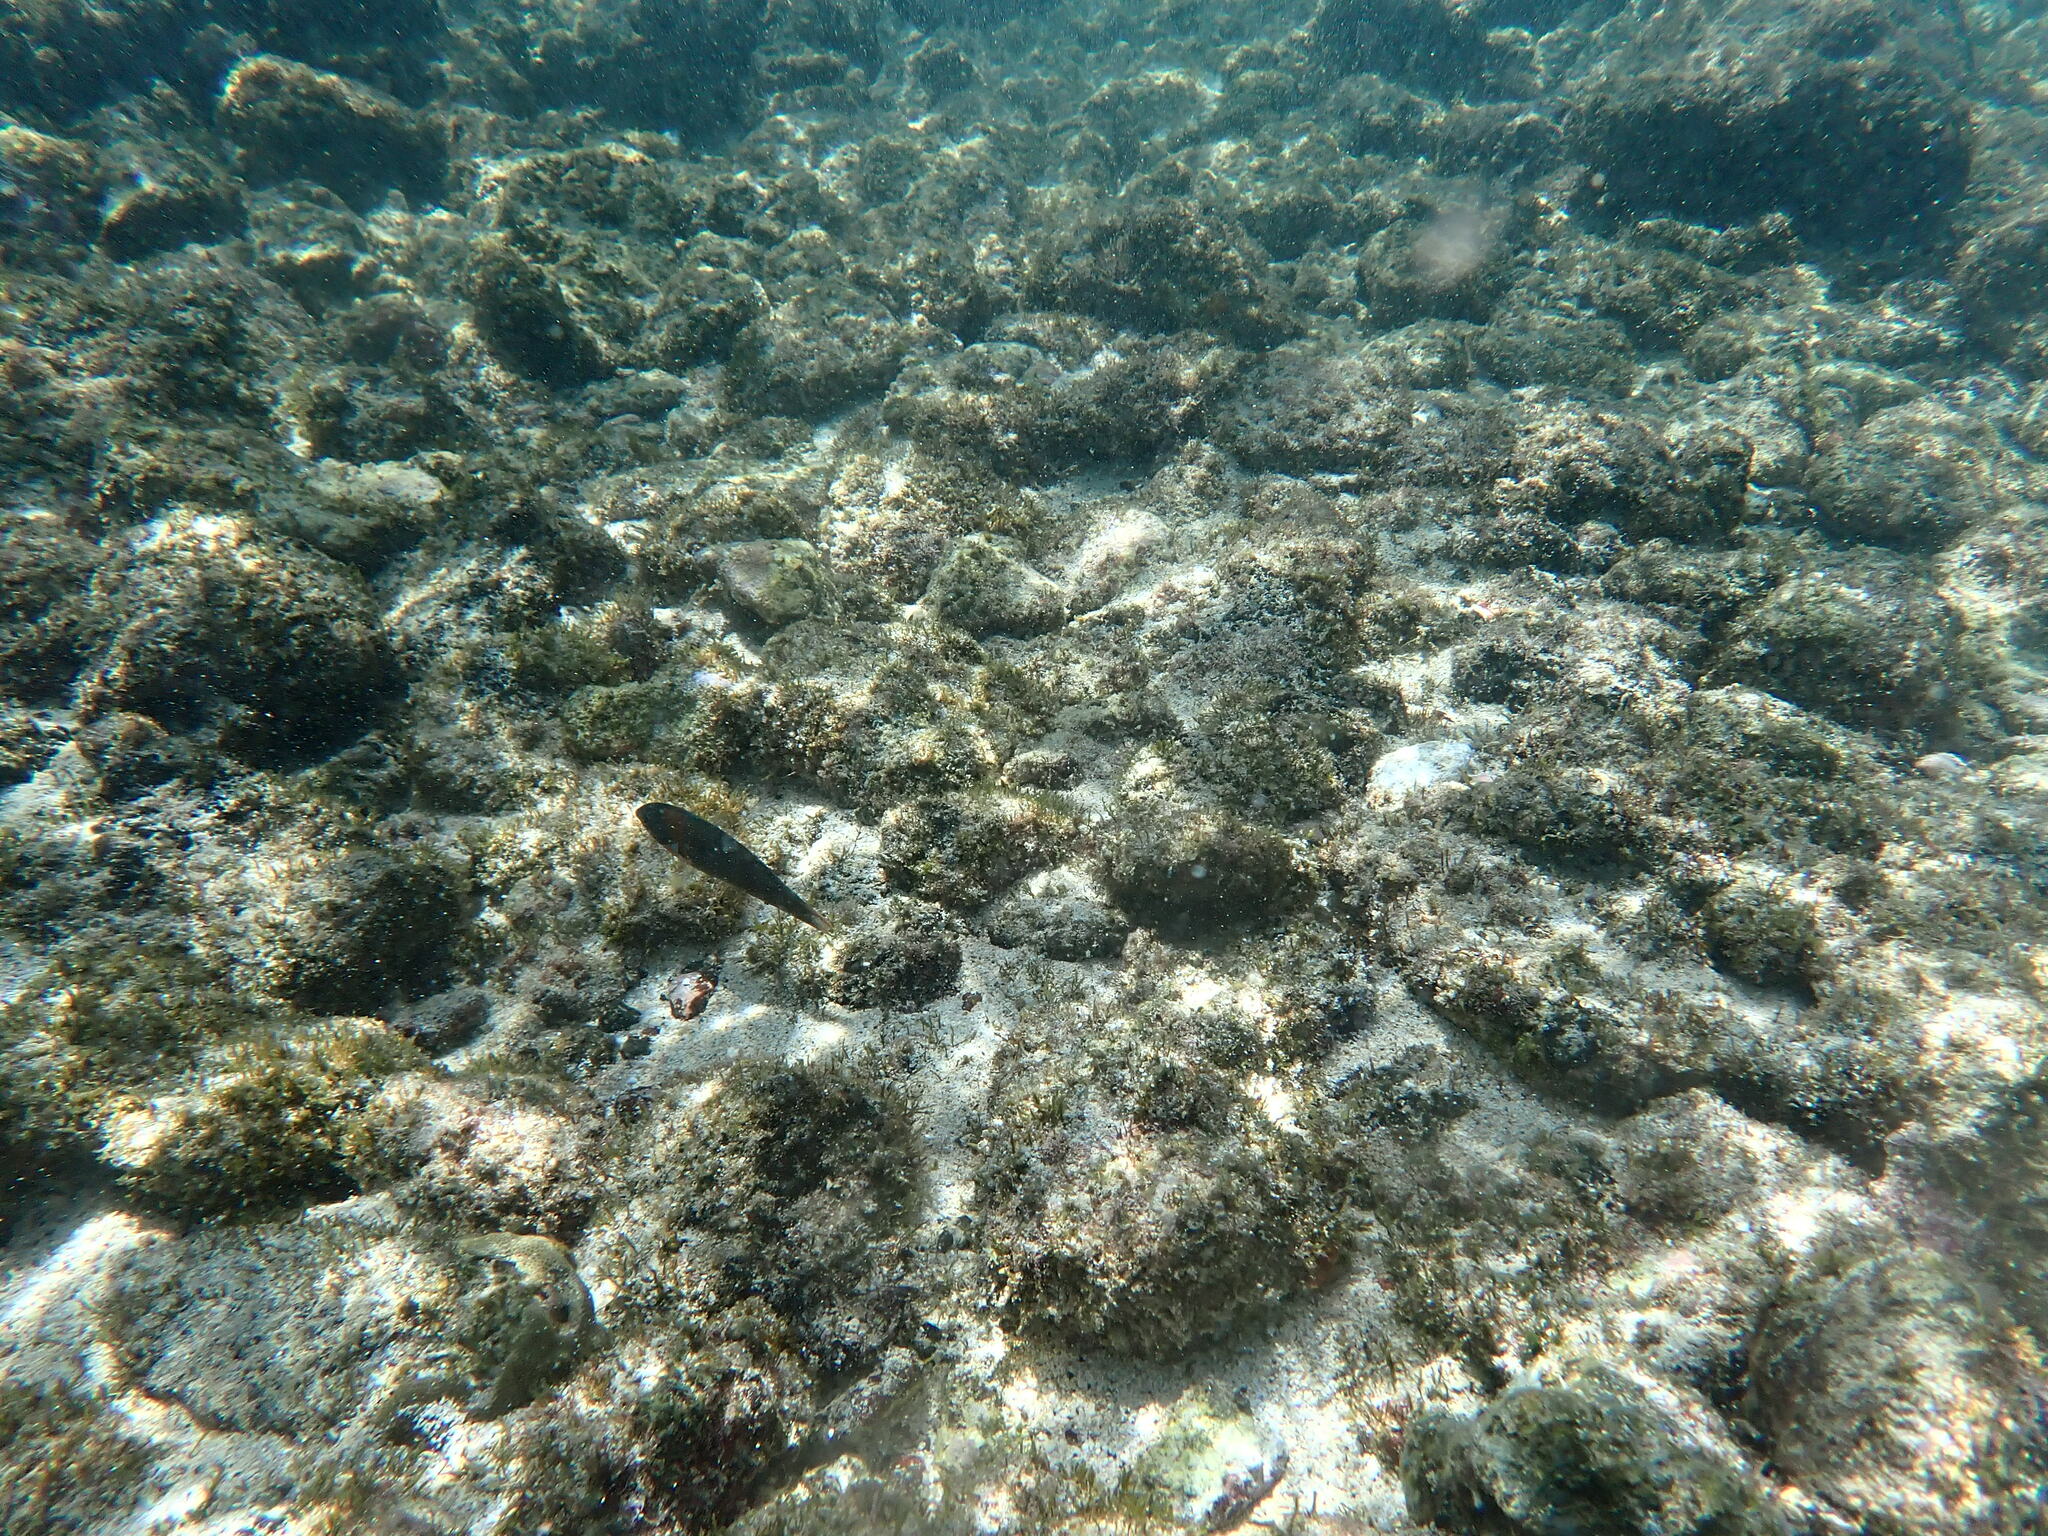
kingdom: Animalia
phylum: Chordata
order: Perciformes
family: Labridae
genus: Thalassoma
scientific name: Thalassoma duperrey
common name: Saddle wrasse
